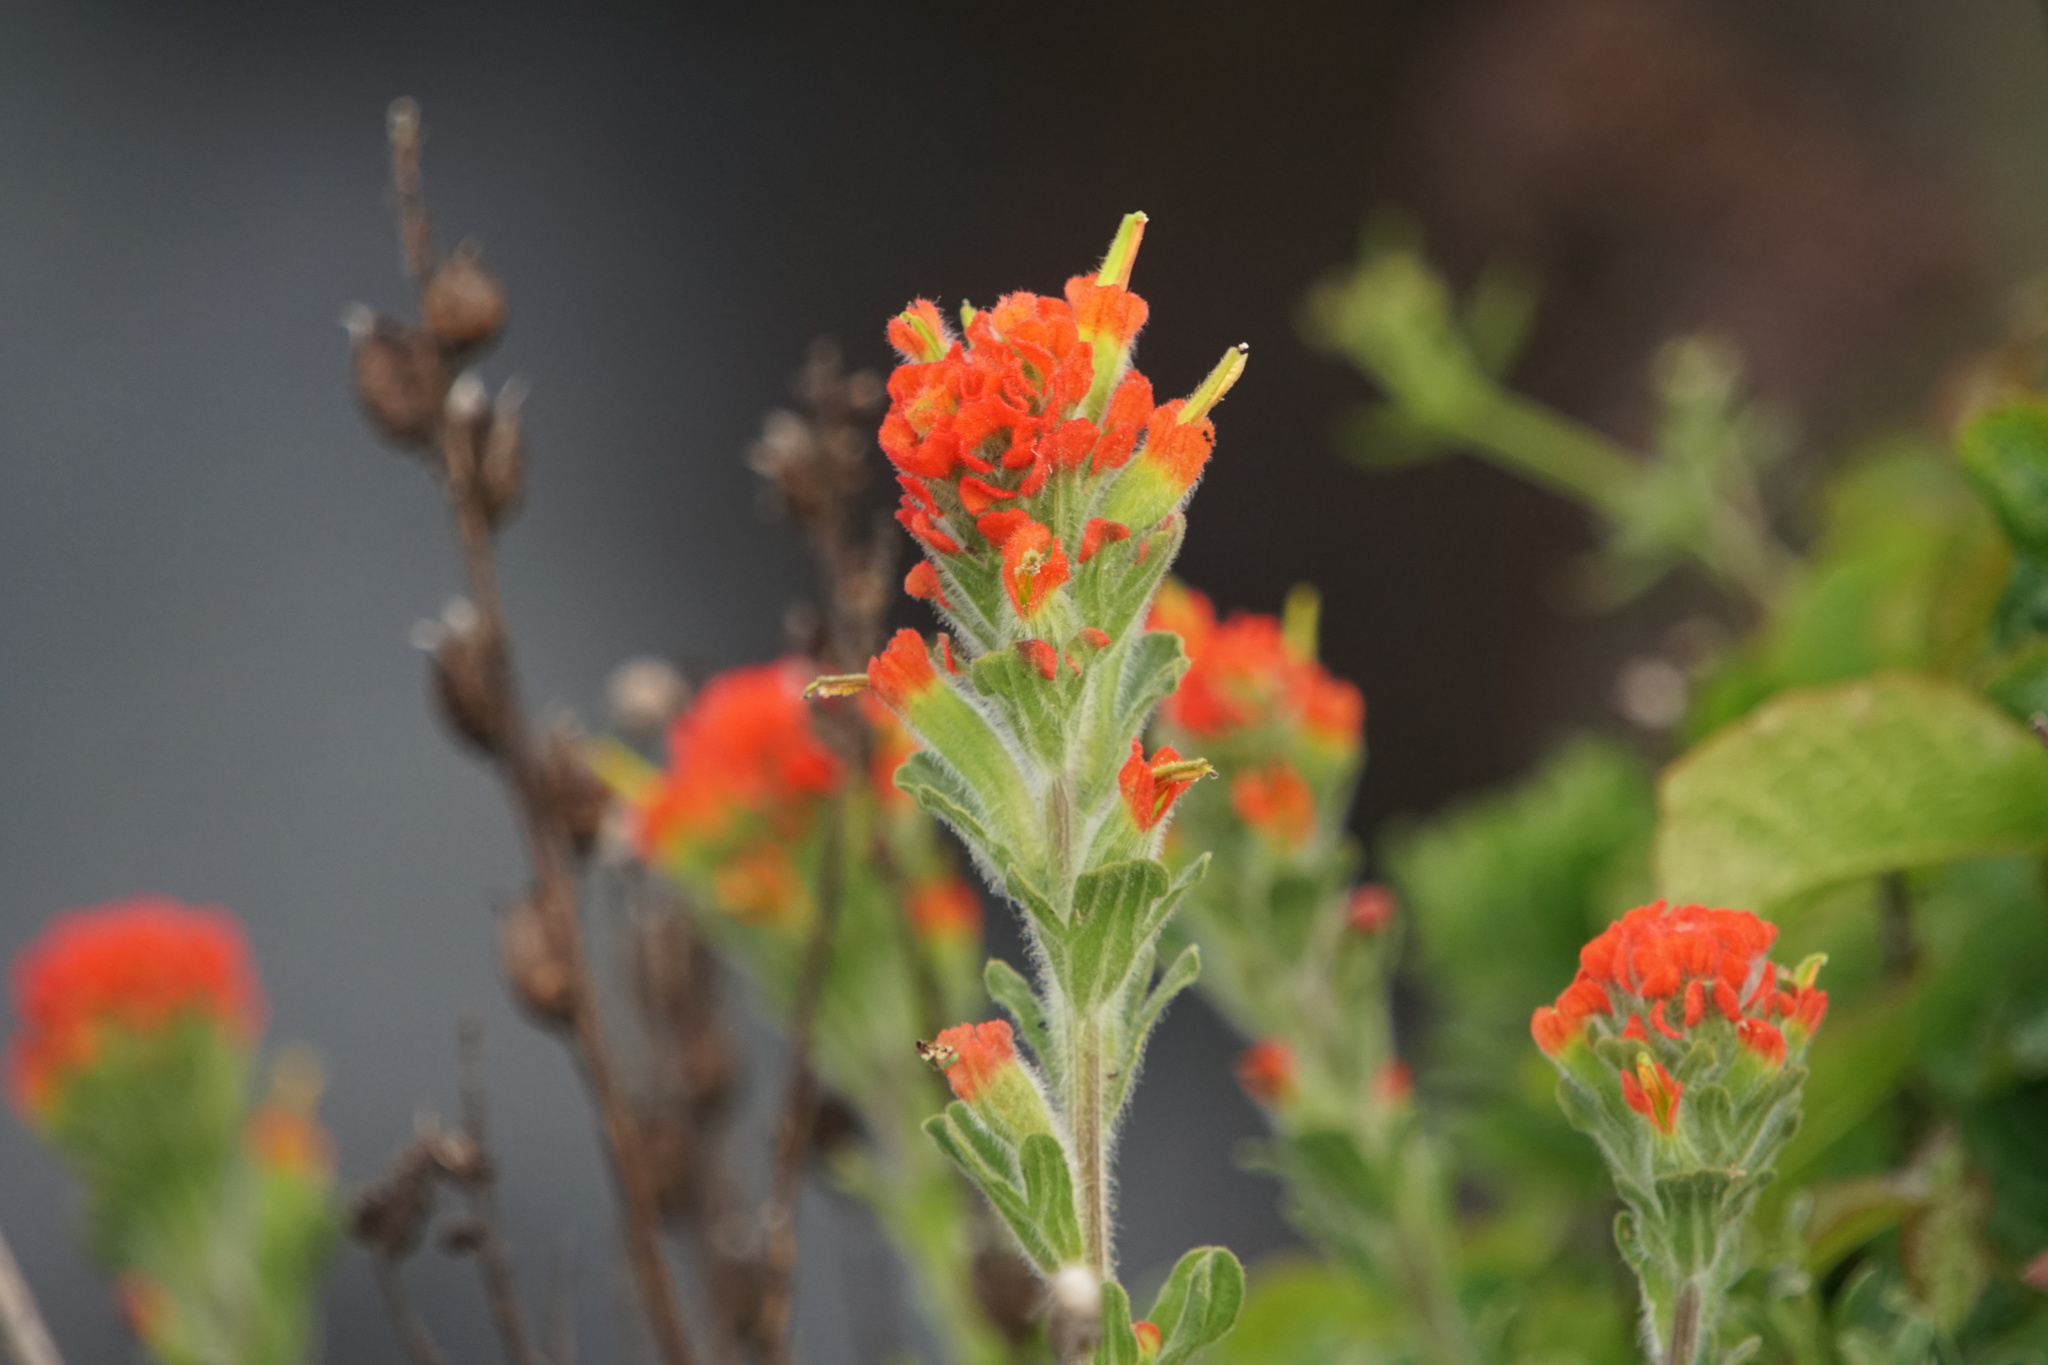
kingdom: Plantae
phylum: Tracheophyta
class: Magnoliopsida
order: Lamiales
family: Orobanchaceae
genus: Castilleja
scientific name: Castilleja wightii
